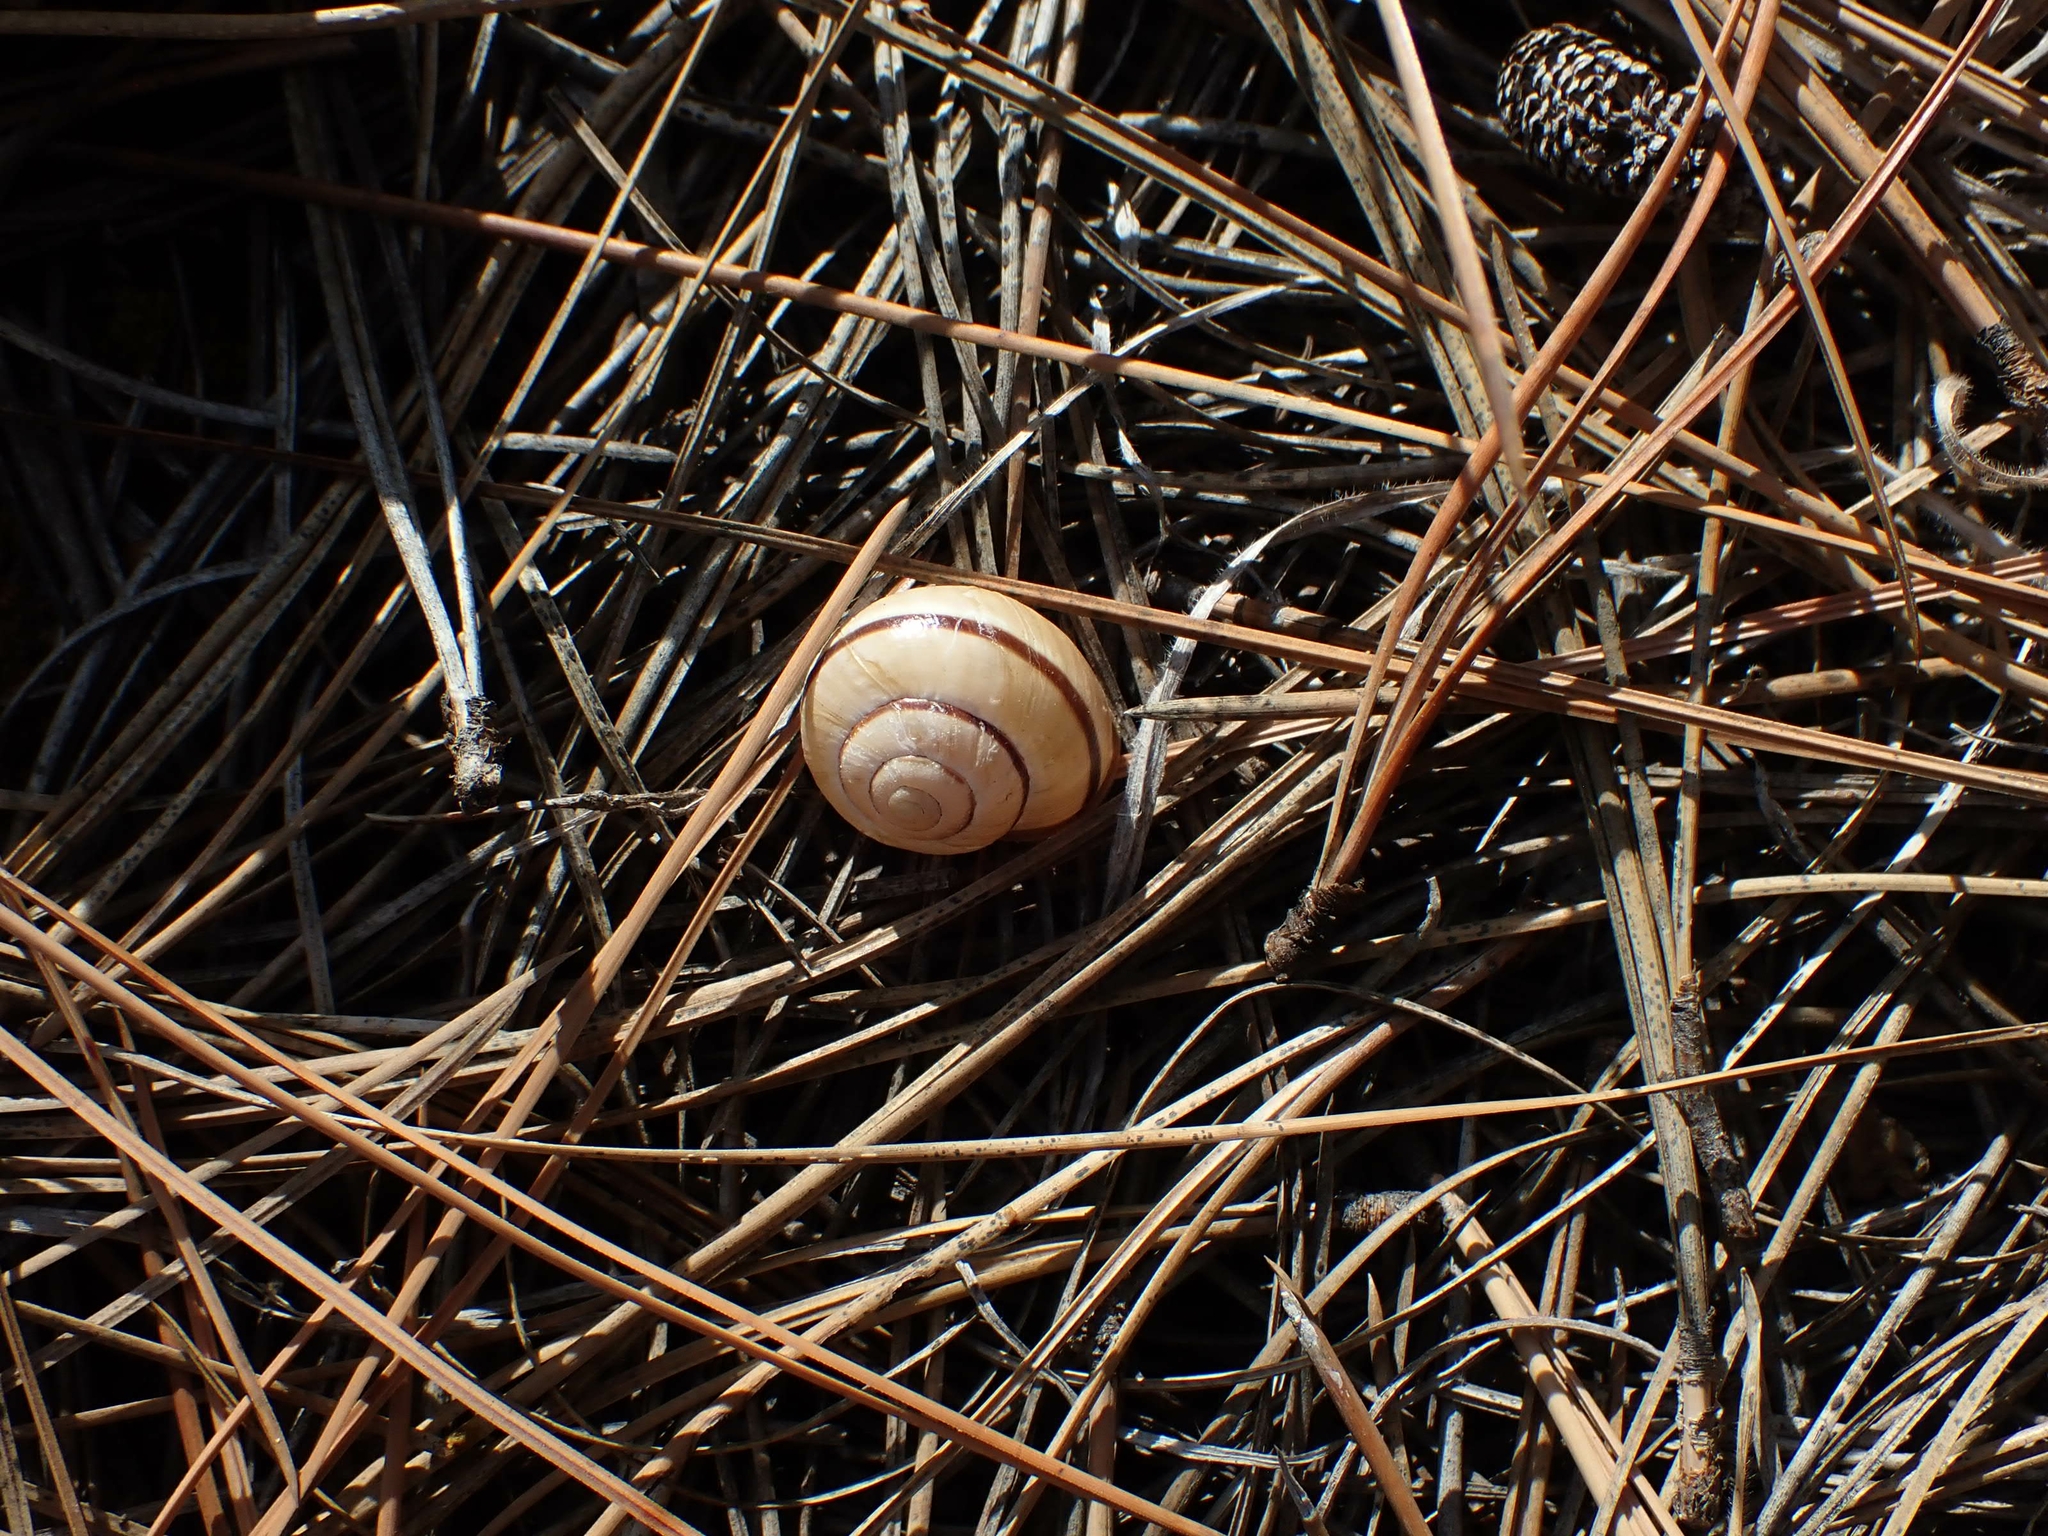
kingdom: Animalia
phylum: Mollusca
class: Gastropoda
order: Stylommatophora
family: Helicidae
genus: Cepaea
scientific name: Cepaea nemoralis
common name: Grovesnail
